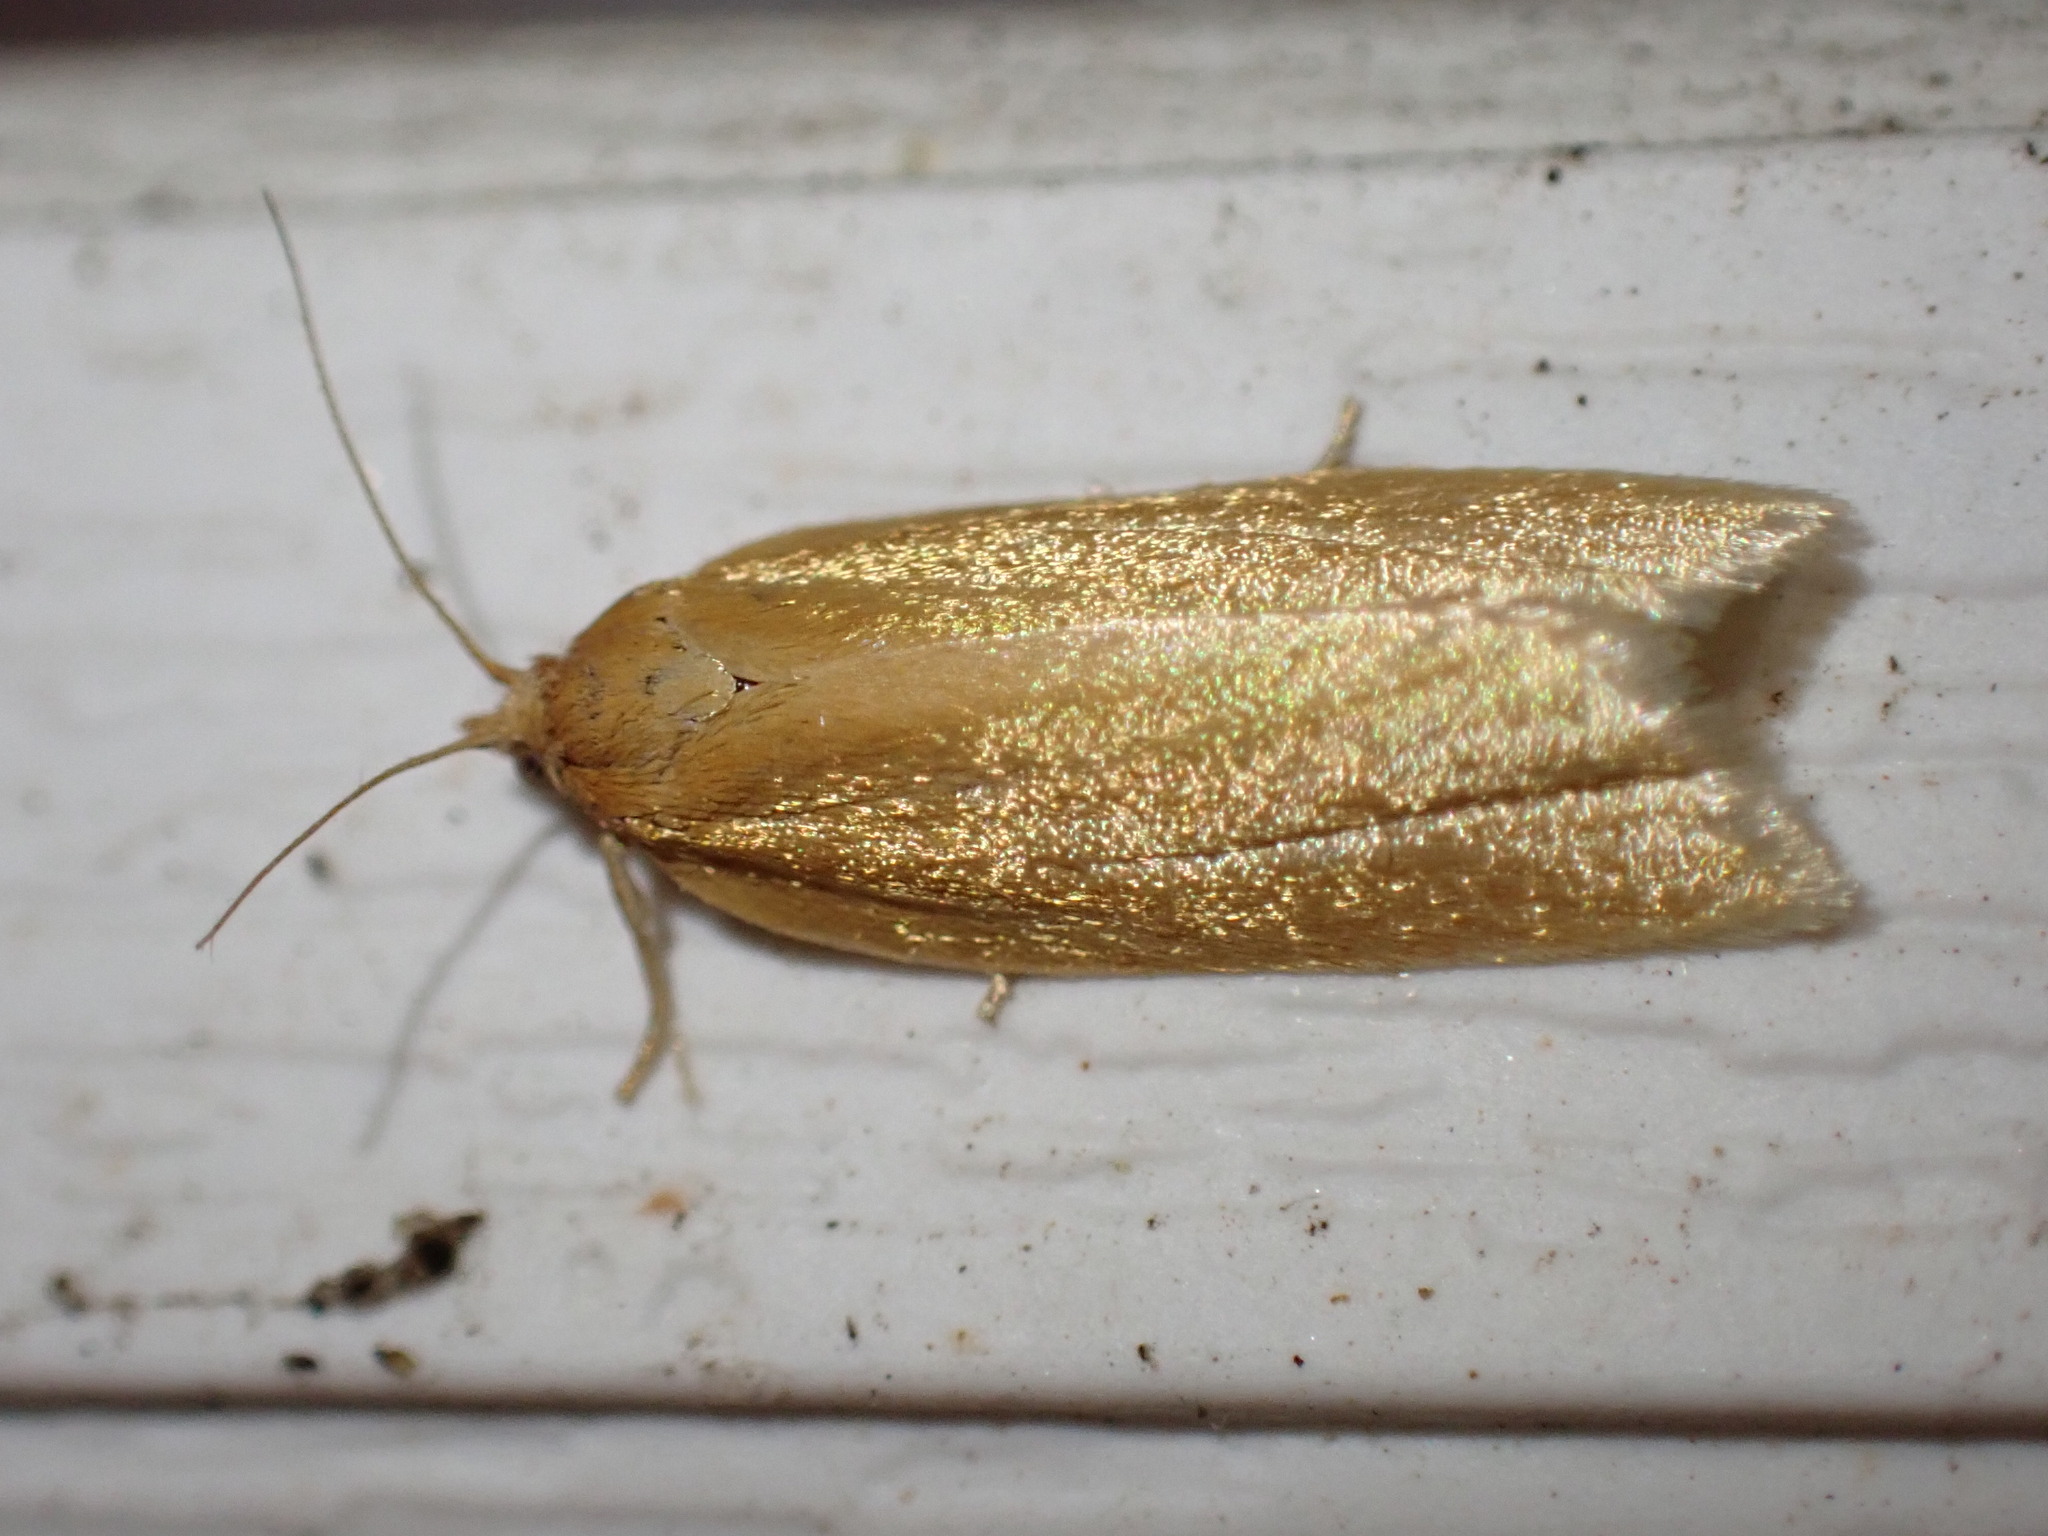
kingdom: Animalia
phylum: Arthropoda
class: Insecta
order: Lepidoptera
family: Tortricidae
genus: Clepsis
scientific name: Clepsis clemensiana
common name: Clemens' clepsis moth
